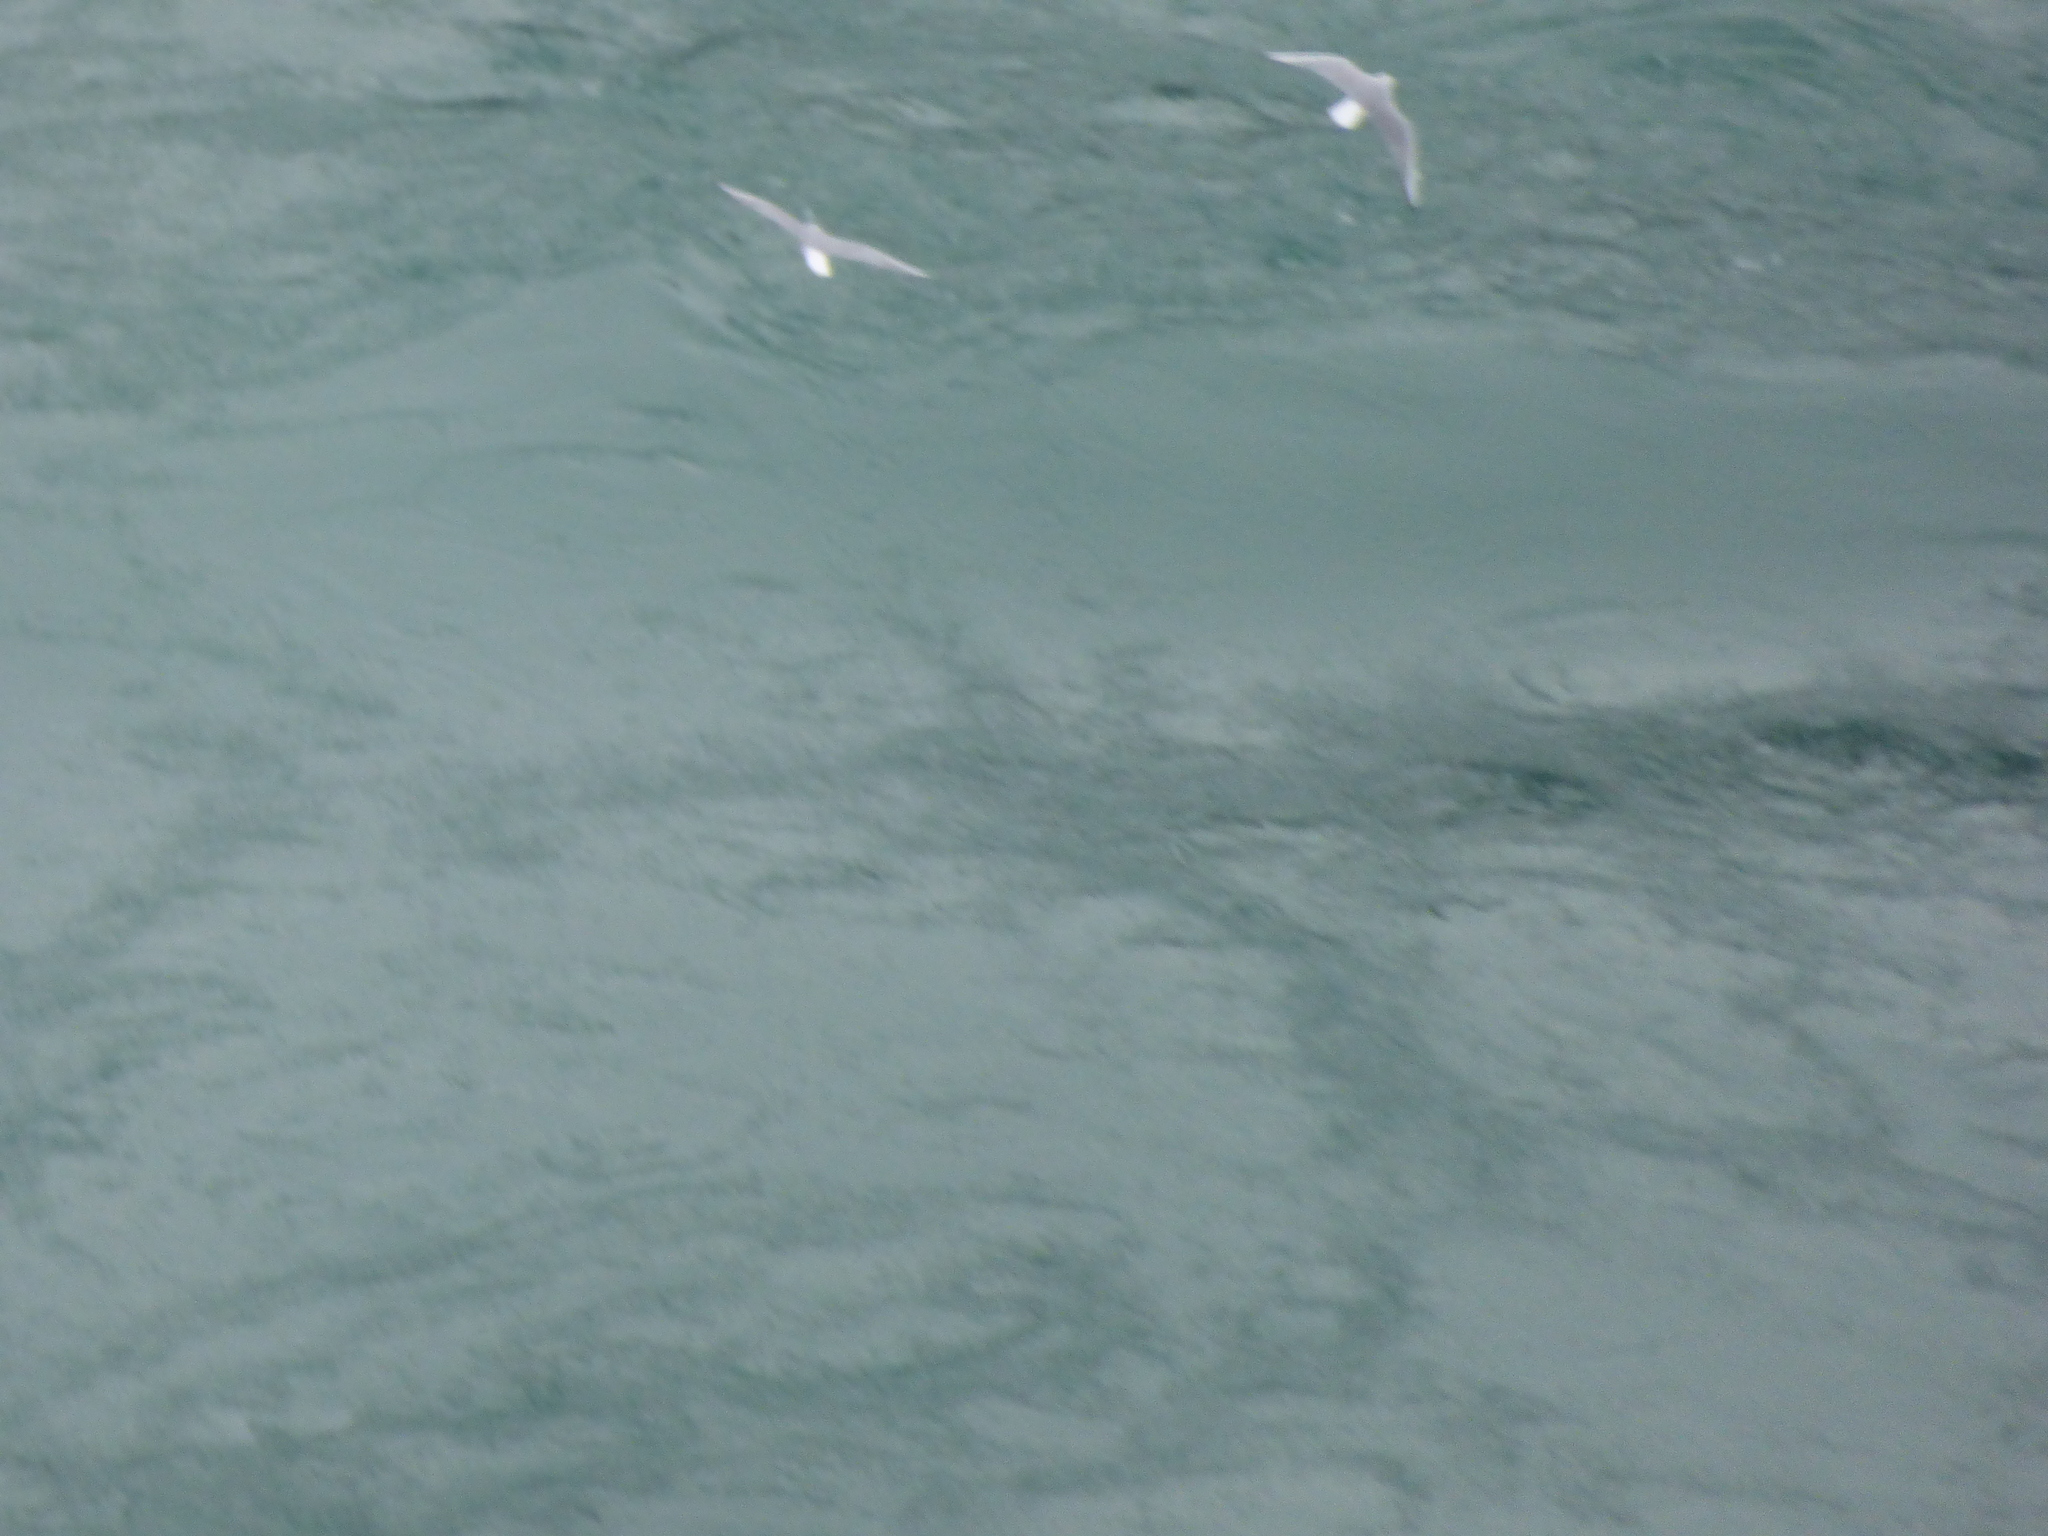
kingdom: Animalia
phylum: Chordata
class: Aves
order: Charadriiformes
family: Laridae
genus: Chroicocephalus
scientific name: Chroicocephalus philadelphia
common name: Bonaparte's gull
